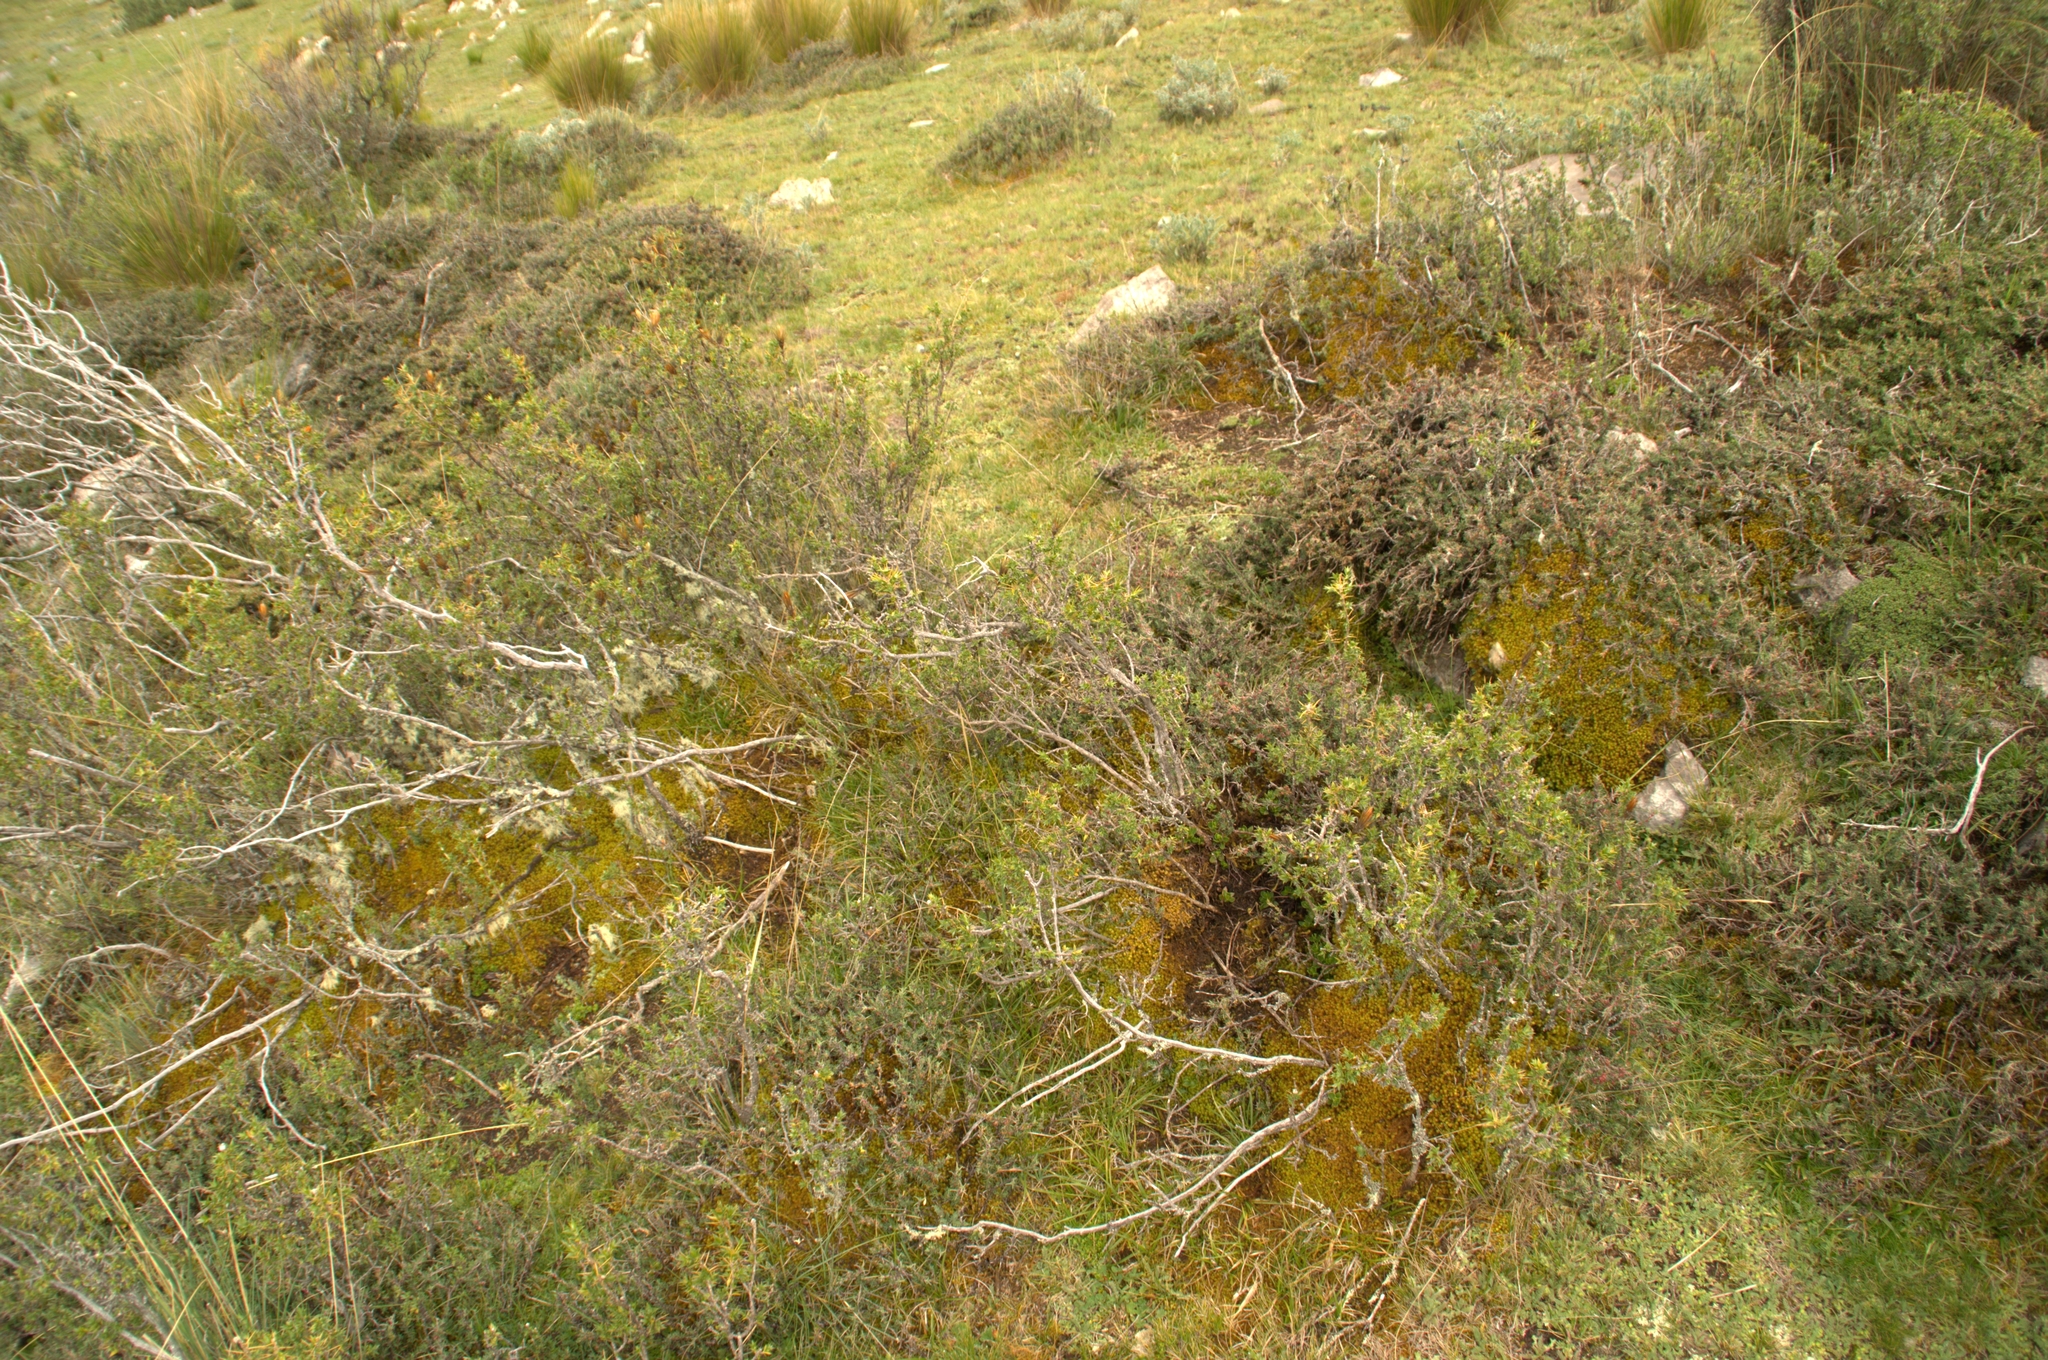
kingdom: Plantae
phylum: Tracheophyta
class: Magnoliopsida
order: Asterales
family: Asteraceae
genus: Chuquiraga
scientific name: Chuquiraga spinosa
